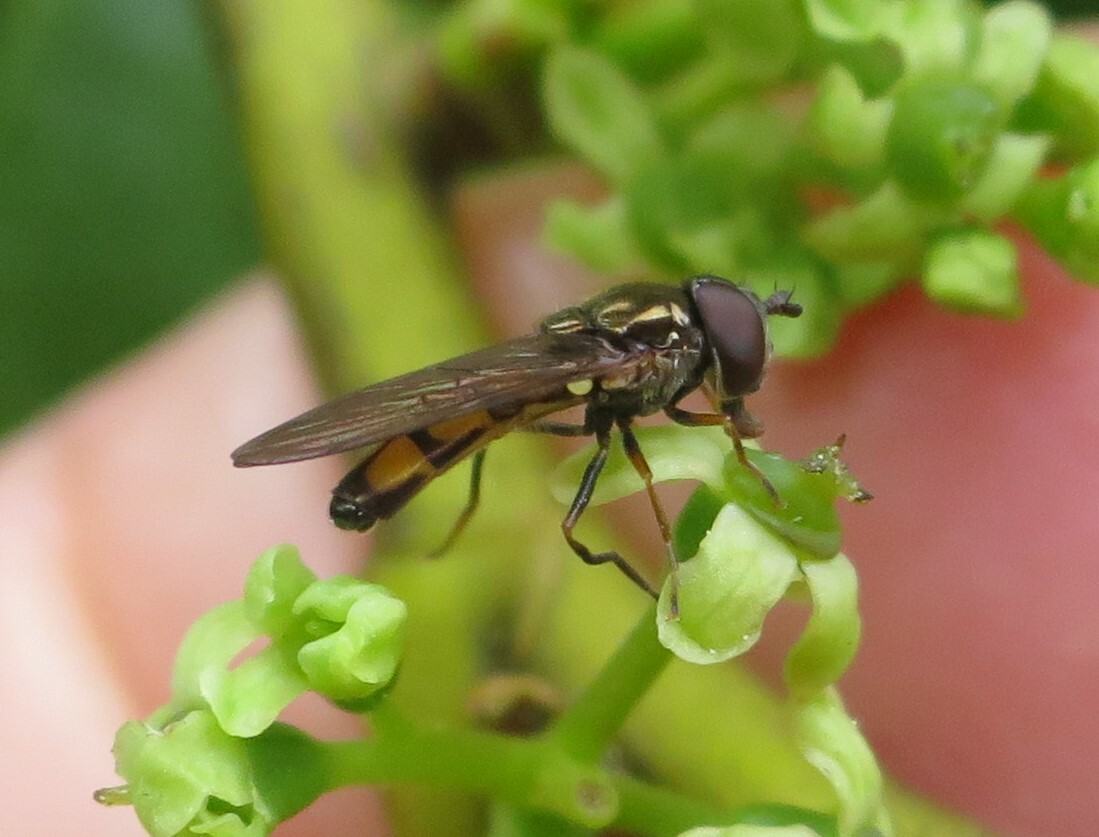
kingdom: Animalia
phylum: Arthropoda
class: Insecta
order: Diptera
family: Syrphidae
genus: Melanostoma
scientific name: Melanostoma fasciatum
